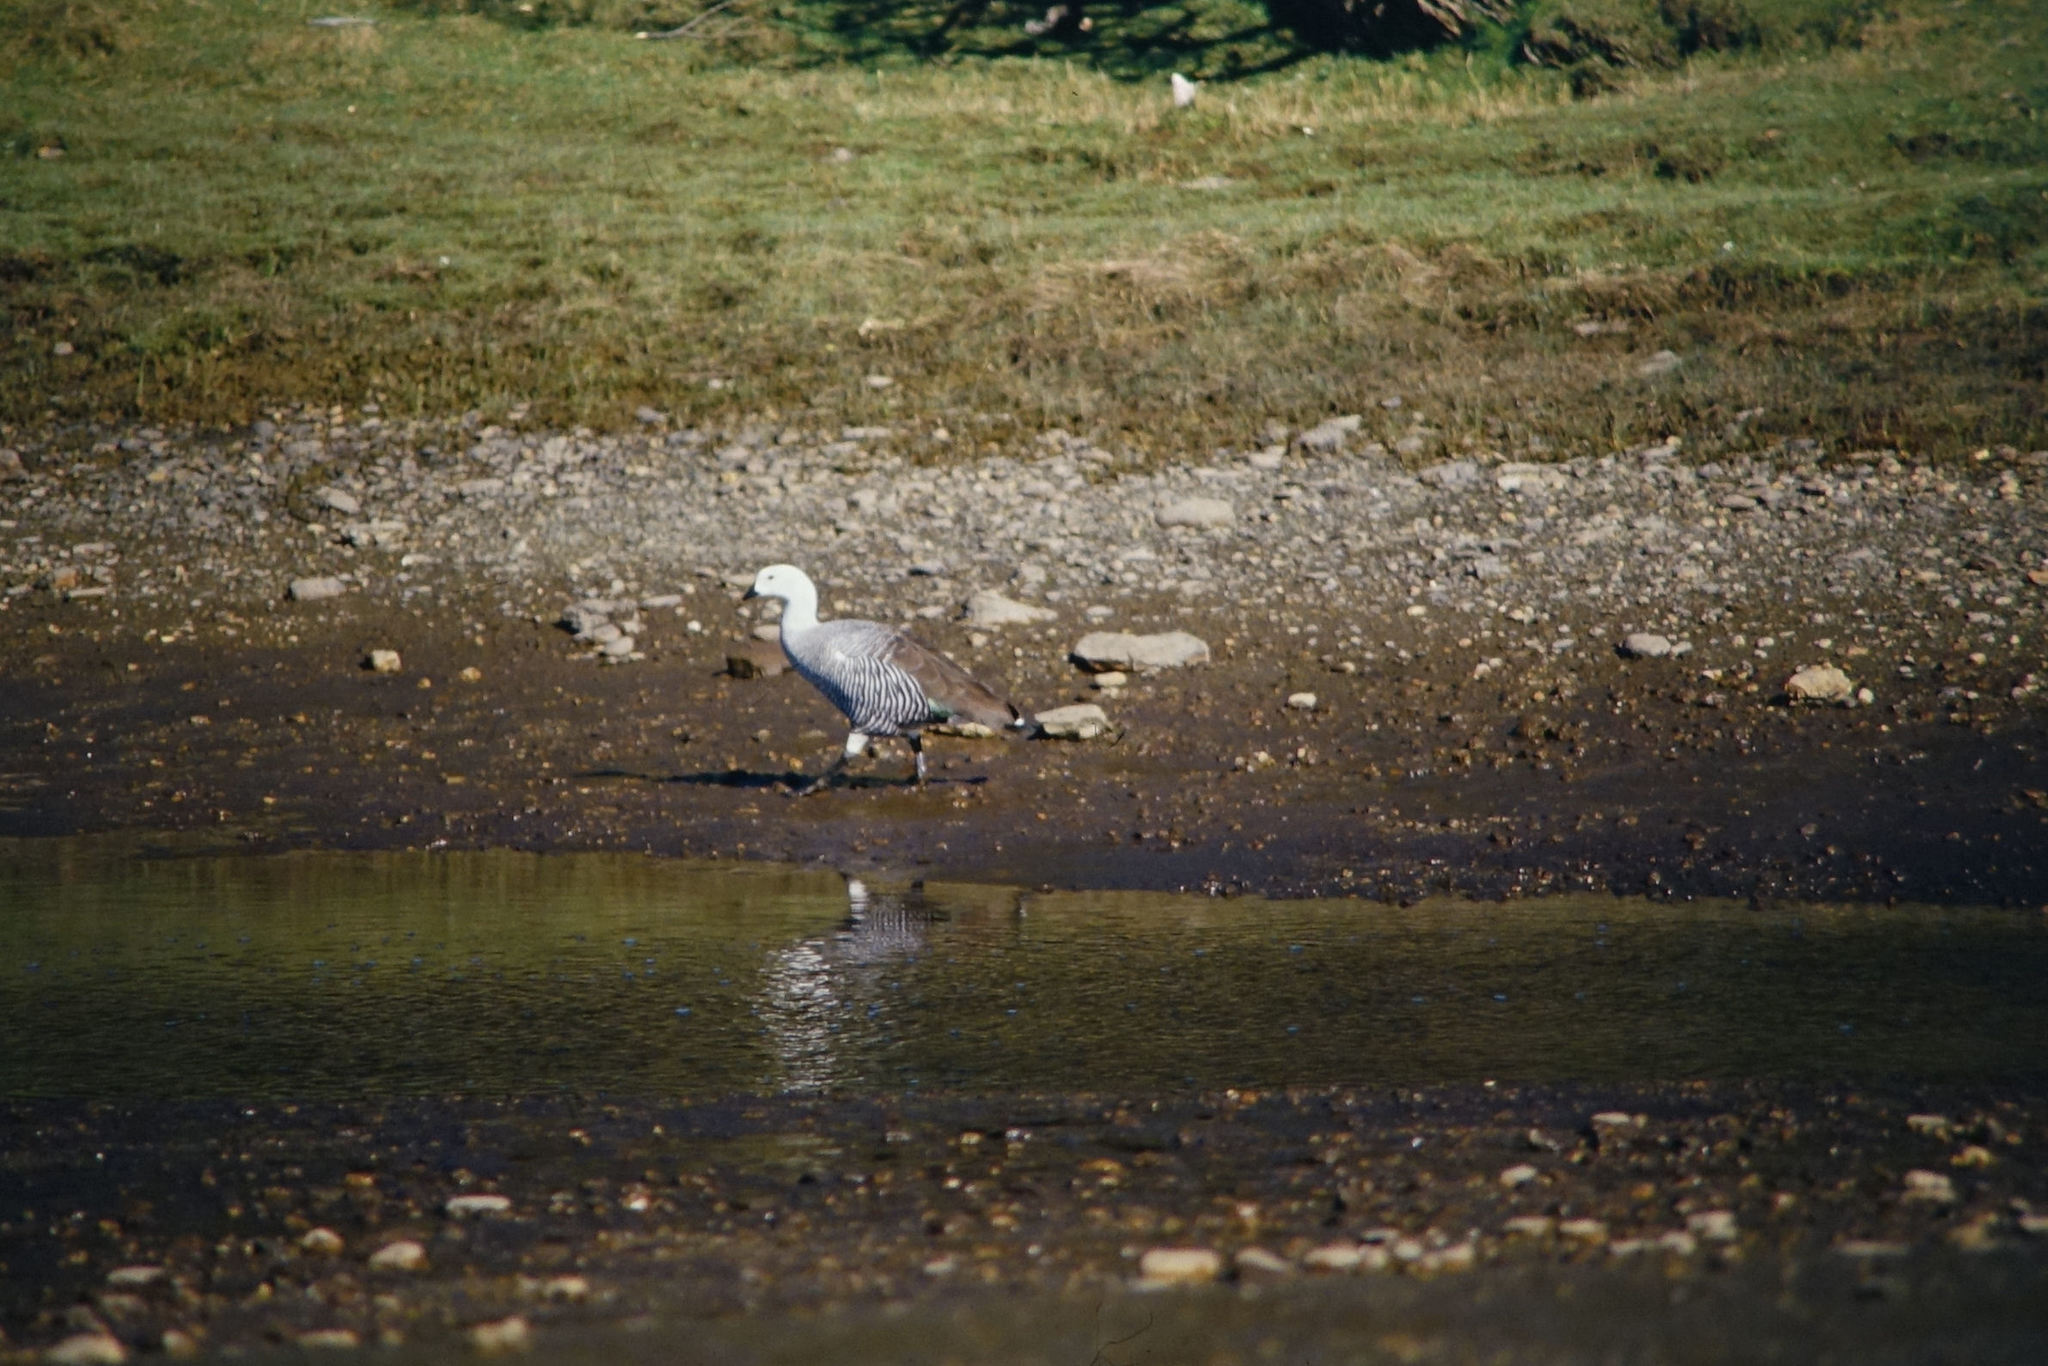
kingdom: Animalia
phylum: Chordata
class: Aves
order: Anseriformes
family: Anatidae
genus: Chloephaga
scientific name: Chloephaga picta
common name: Upland goose
